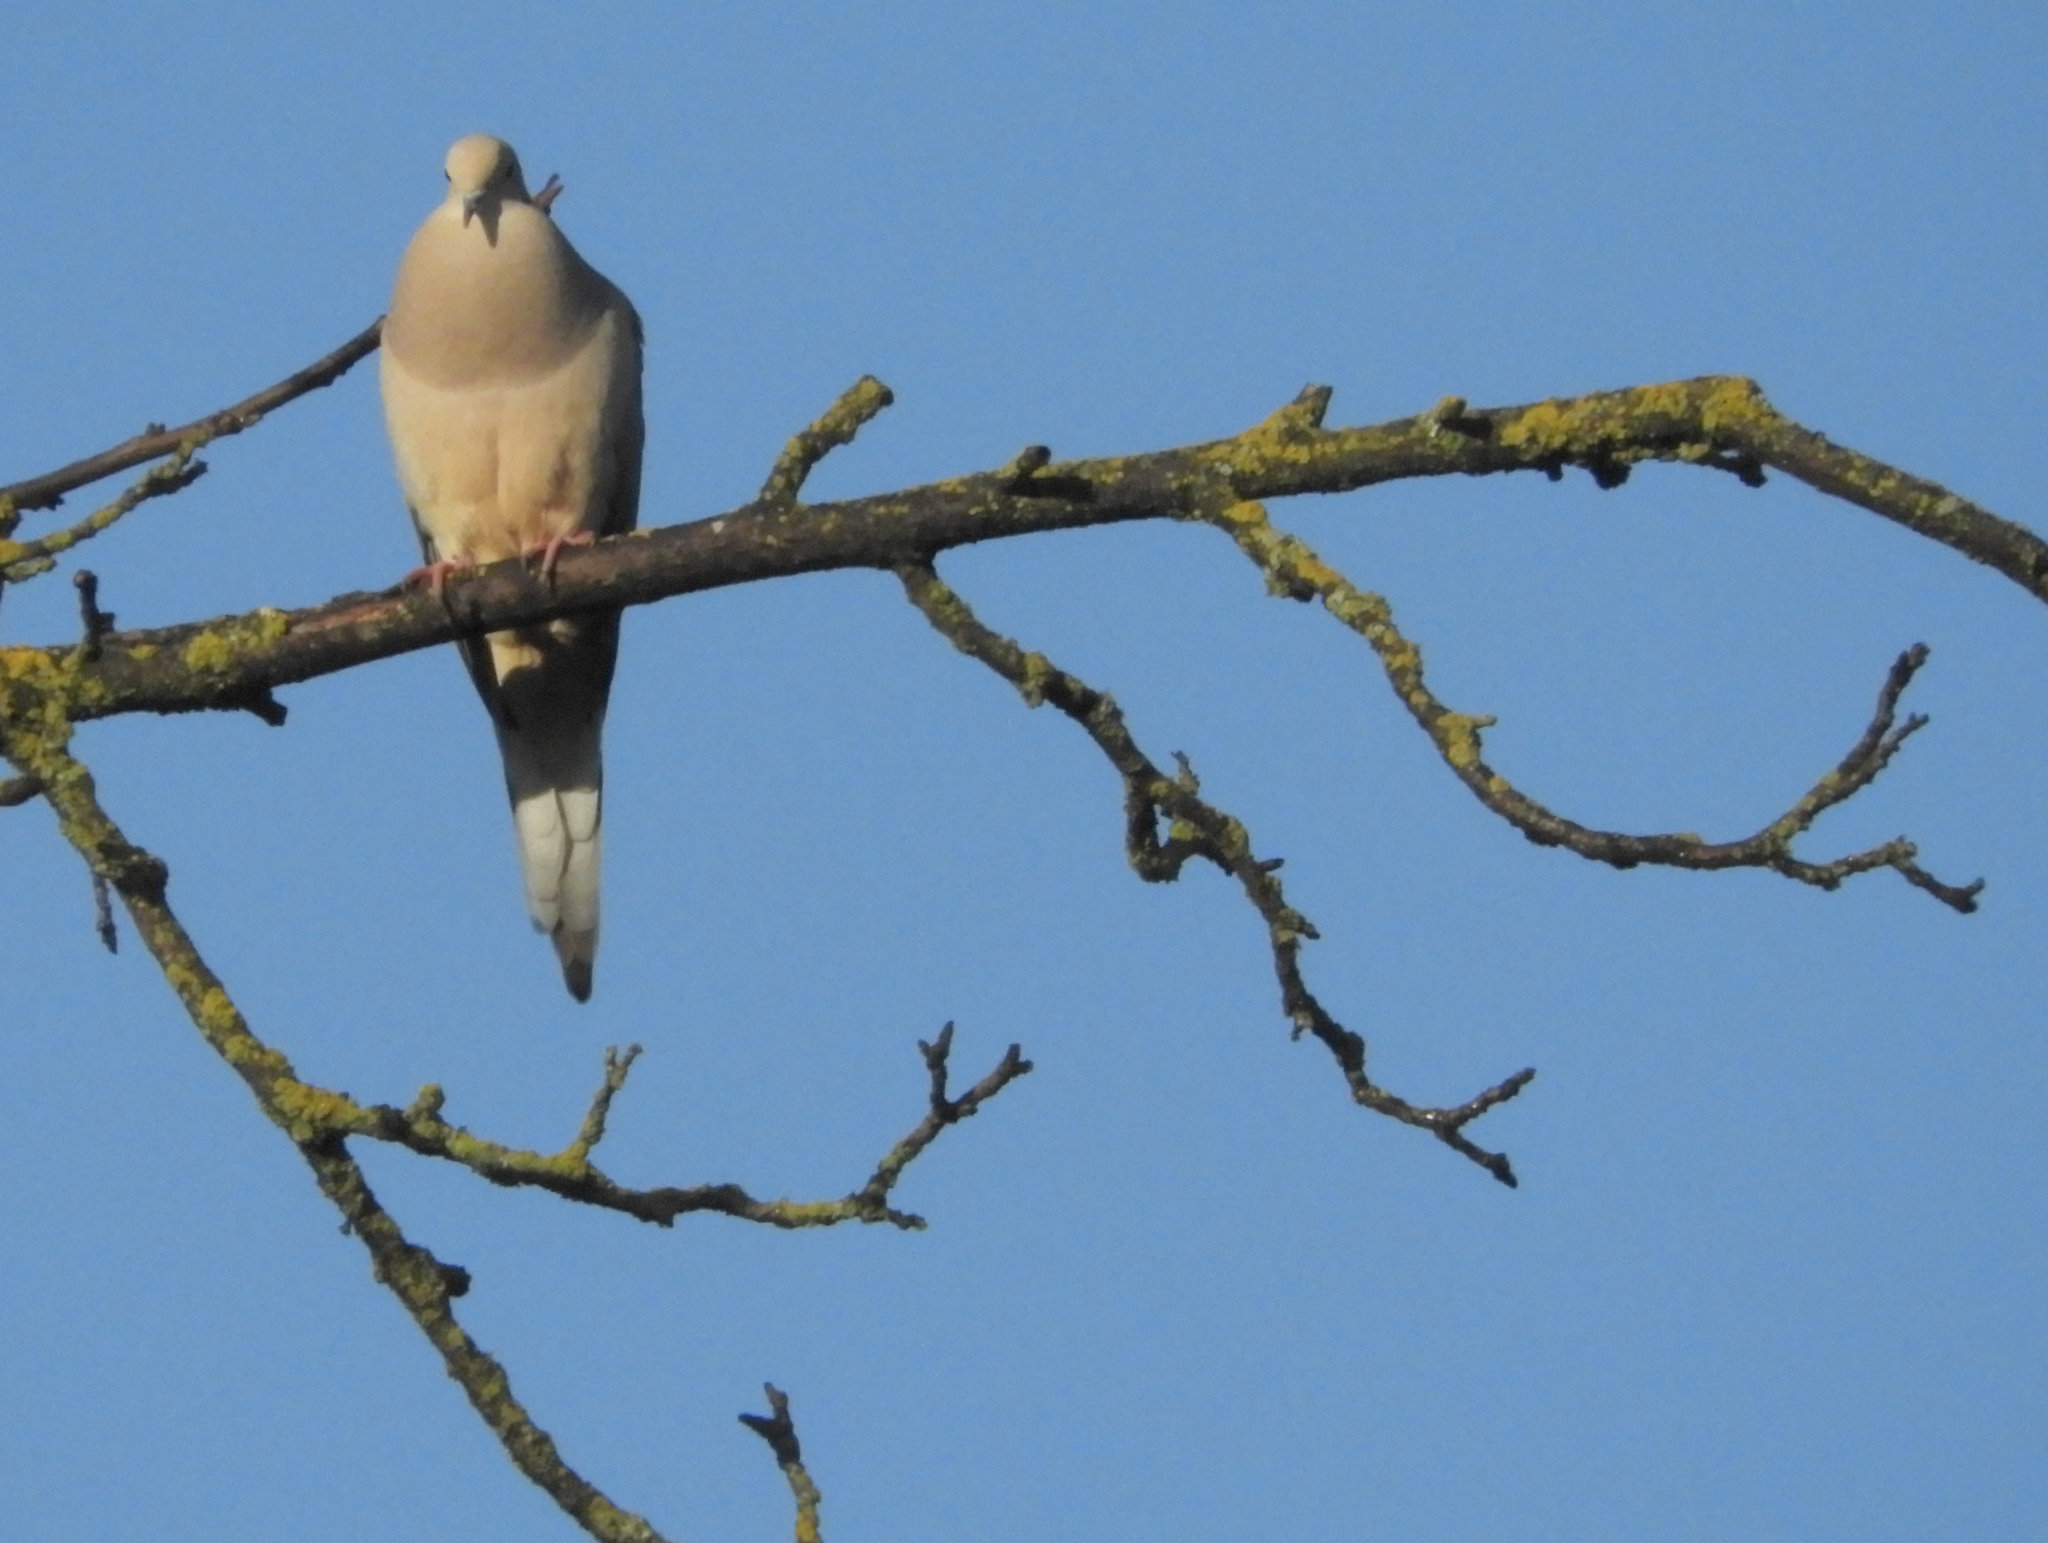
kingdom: Animalia
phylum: Chordata
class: Aves
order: Columbiformes
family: Columbidae
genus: Zenaida
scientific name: Zenaida macroura
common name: Mourning dove
